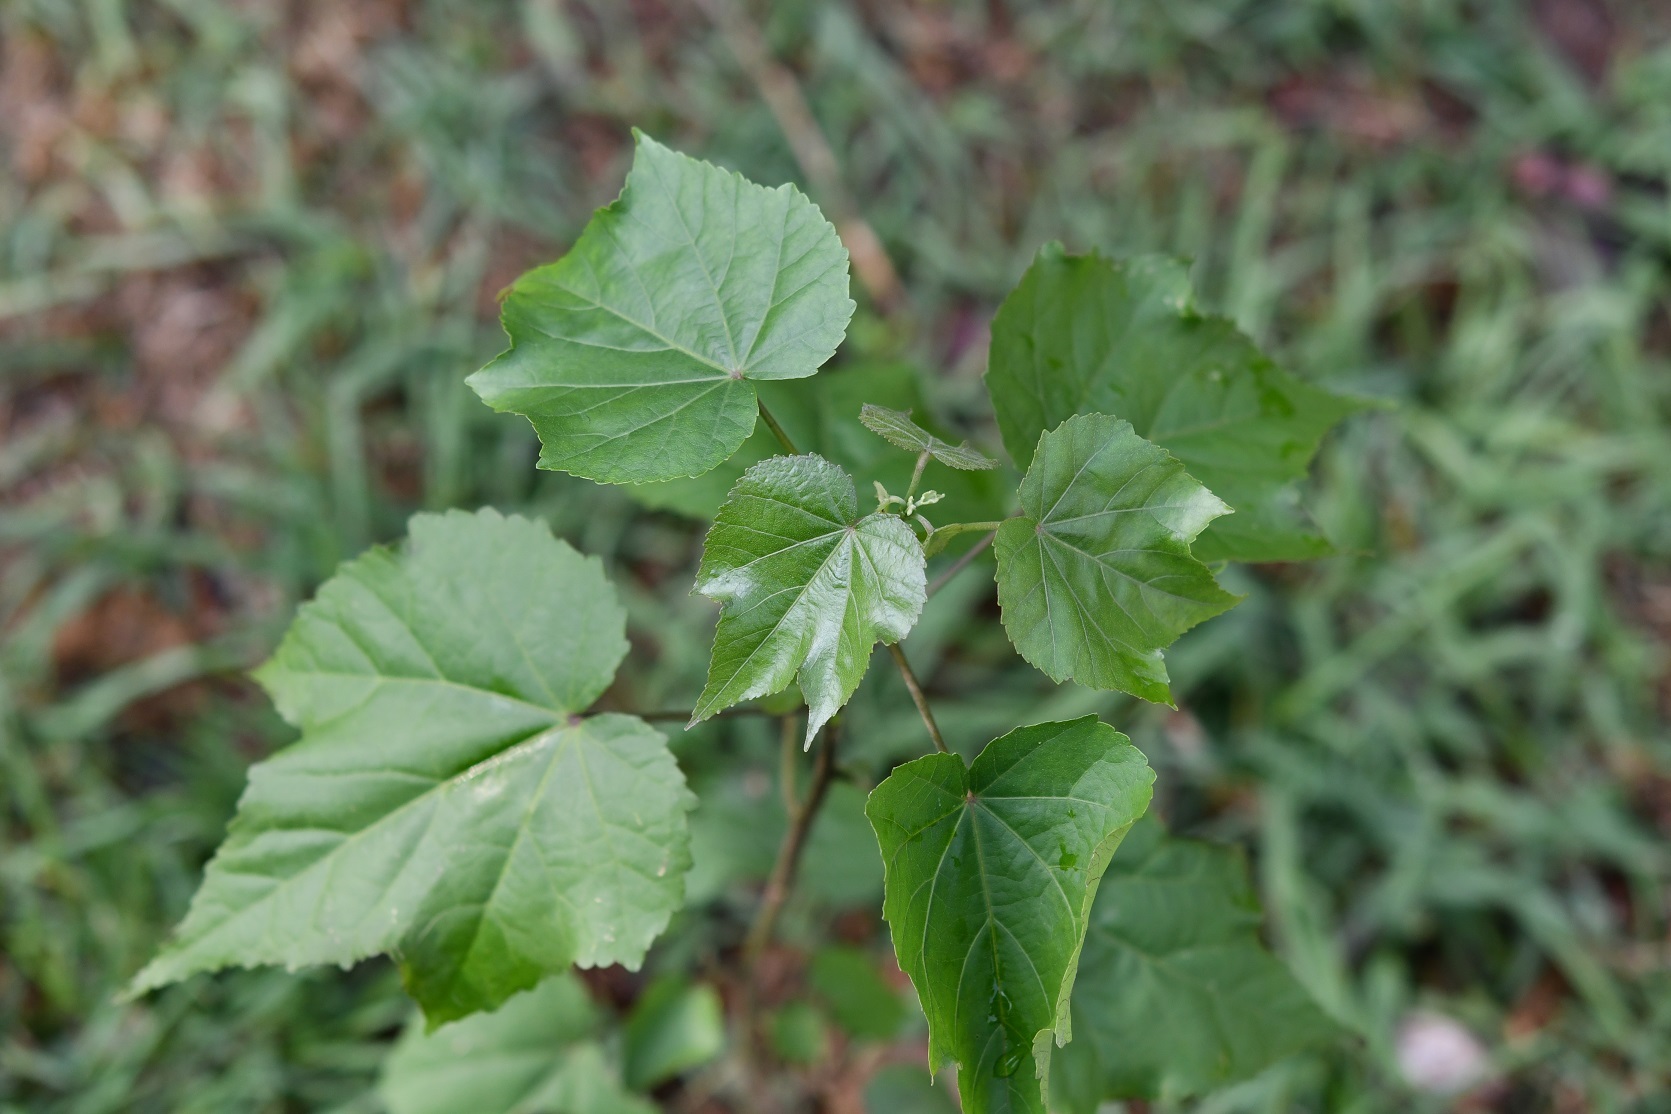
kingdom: Plantae
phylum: Tracheophyta
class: Magnoliopsida
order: Malvales
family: Malvaceae
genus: Robinsonella
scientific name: Robinsonella glabrifolia
